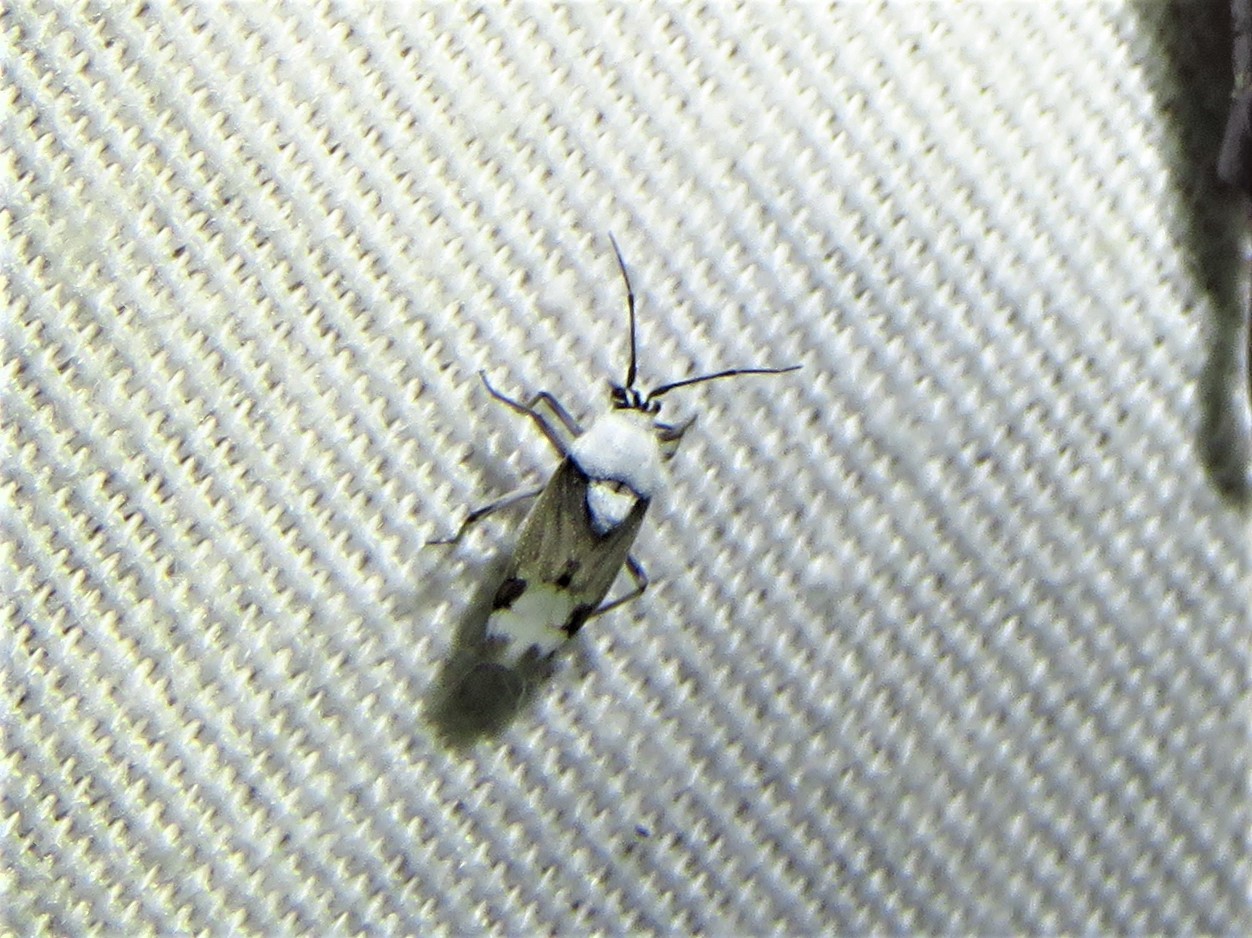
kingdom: Animalia
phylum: Arthropoda
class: Insecta
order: Hemiptera
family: Miridae
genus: Clivinema
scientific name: Clivinema villosa
